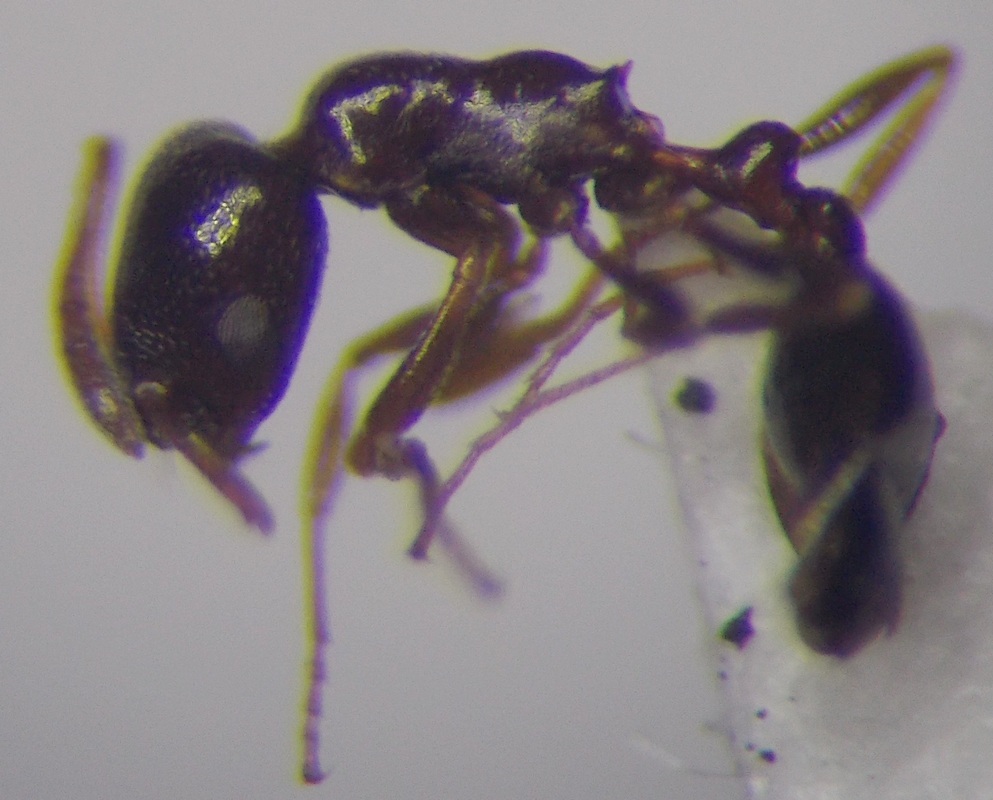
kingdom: Animalia
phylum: Arthropoda
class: Insecta
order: Hymenoptera
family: Formicidae
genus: Cardiocondyla
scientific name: Cardiocondyla ulianini
